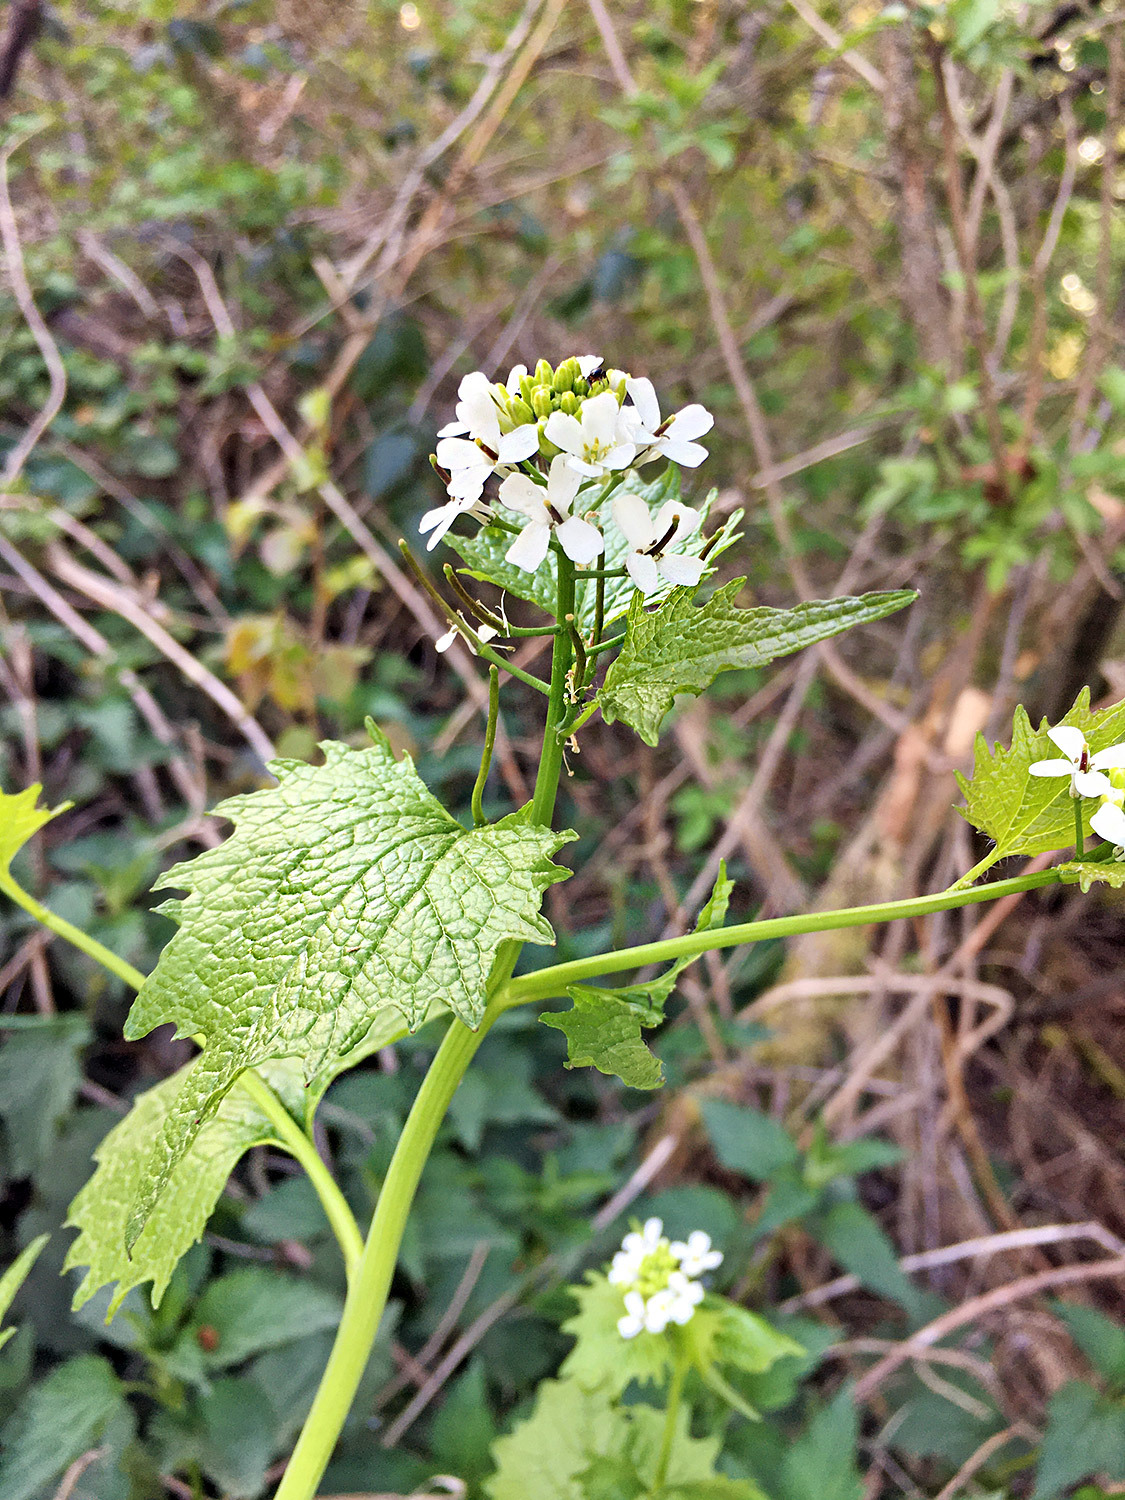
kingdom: Plantae
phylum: Tracheophyta
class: Magnoliopsida
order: Brassicales
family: Brassicaceae
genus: Alliaria
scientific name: Alliaria petiolata
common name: Garlic mustard
